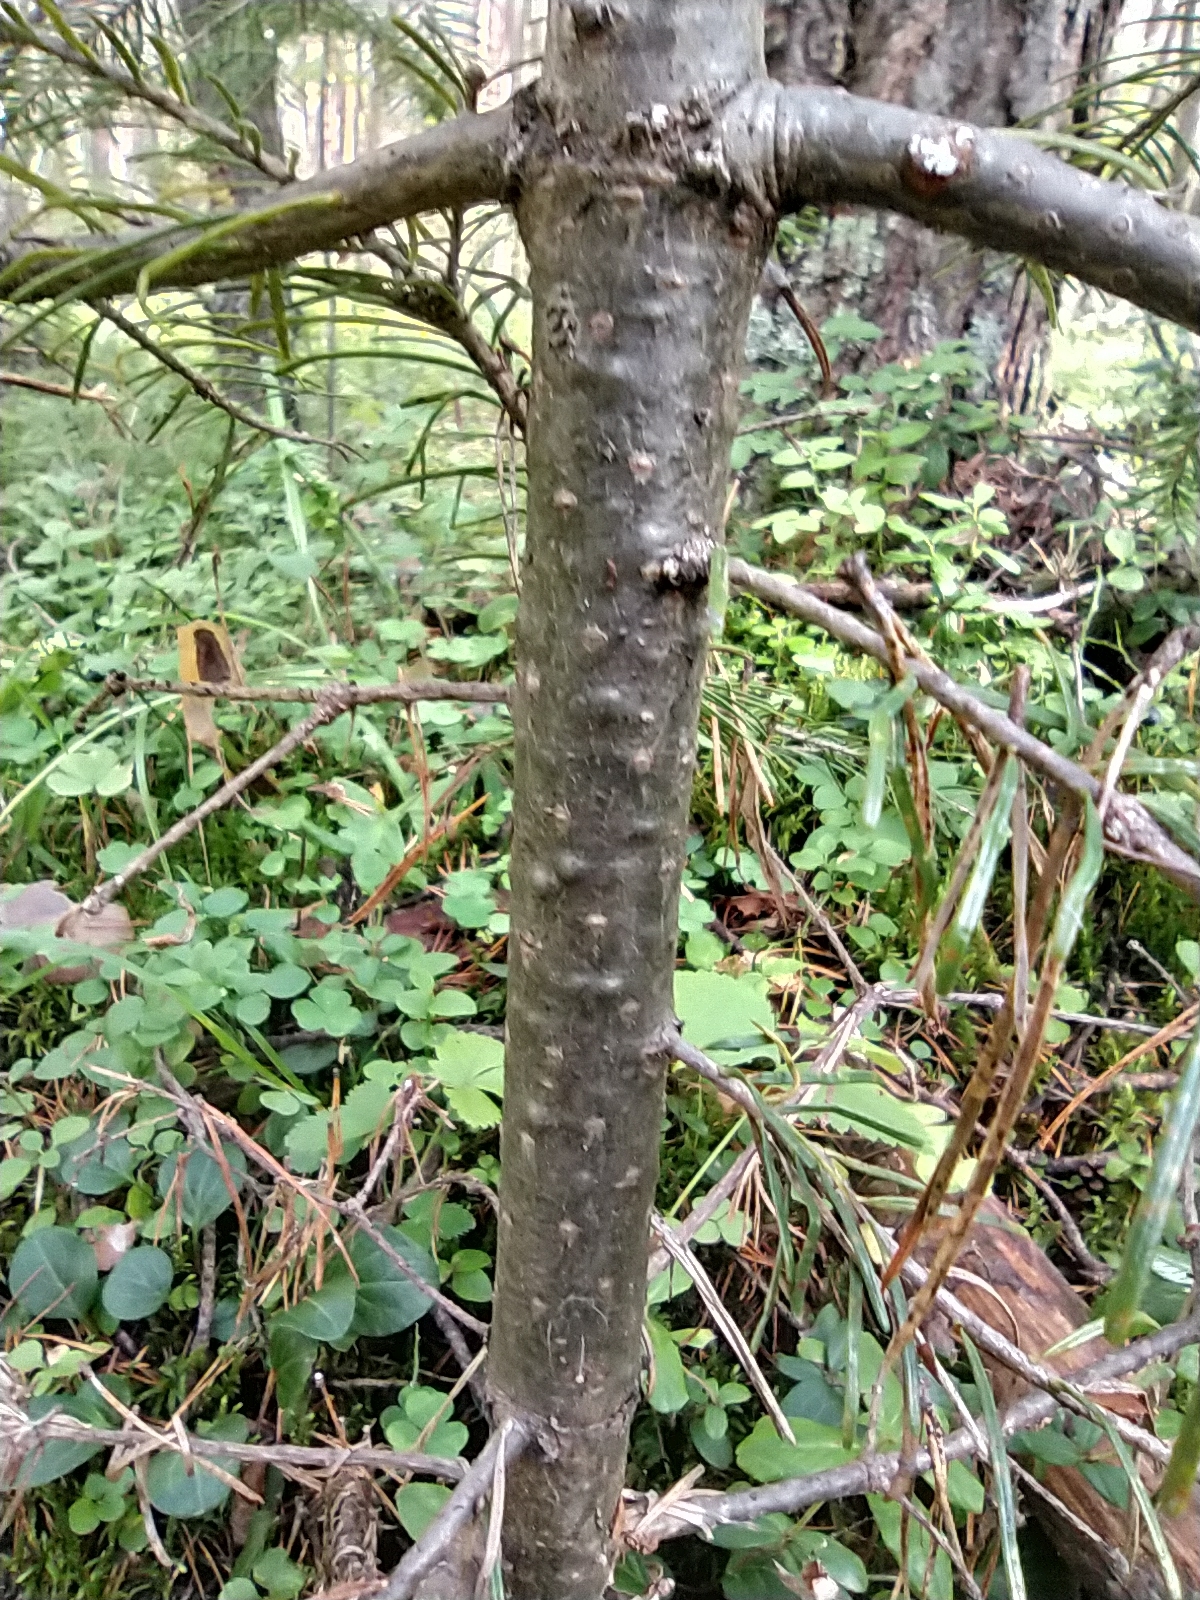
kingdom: Plantae
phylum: Tracheophyta
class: Pinopsida
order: Pinales
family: Pinaceae
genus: Abies
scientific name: Abies sibirica
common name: Siberian fir
